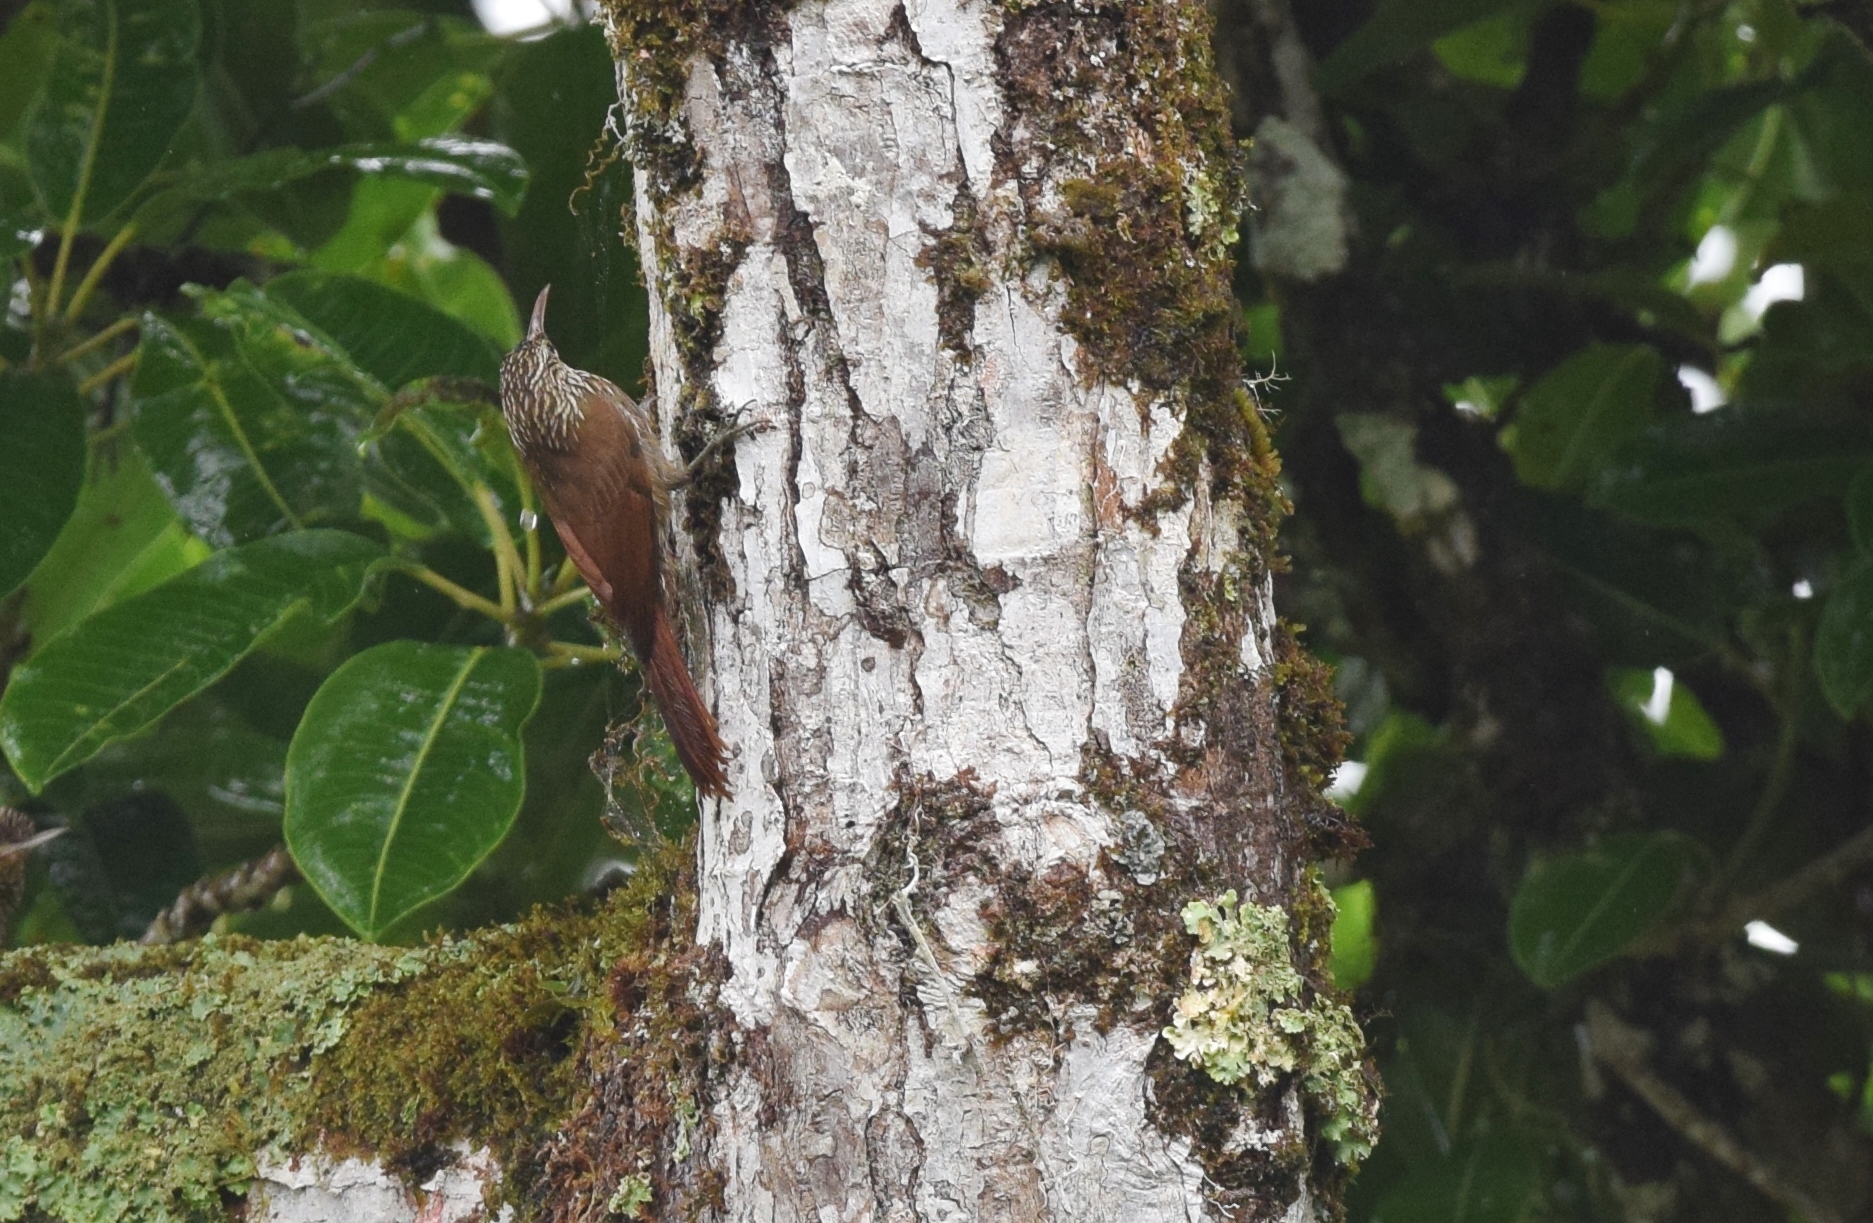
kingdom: Animalia
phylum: Chordata
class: Aves
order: Passeriformes
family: Furnariidae
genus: Lepidocolaptes
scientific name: Lepidocolaptes souleyetii
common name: Streak-headed woodcreeper
